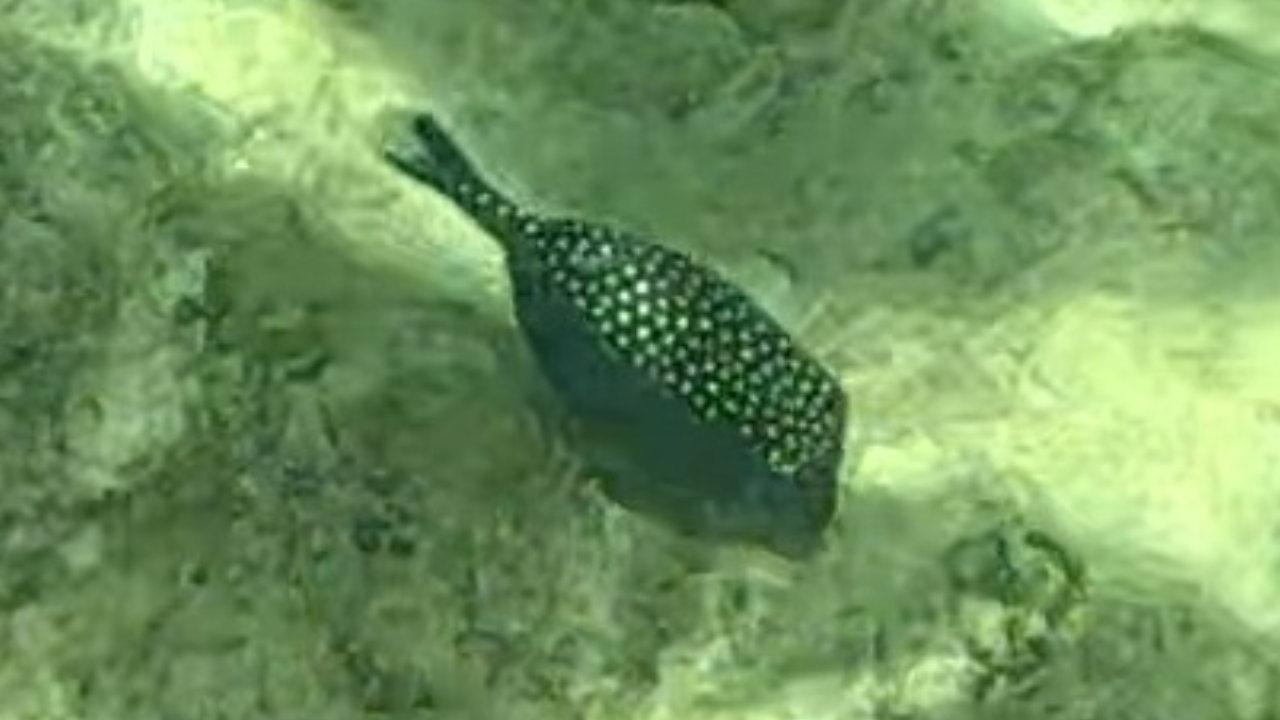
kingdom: Animalia
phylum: Chordata
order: Tetraodontiformes
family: Ostraciidae
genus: Ostracion
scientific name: Ostracion meleagris
